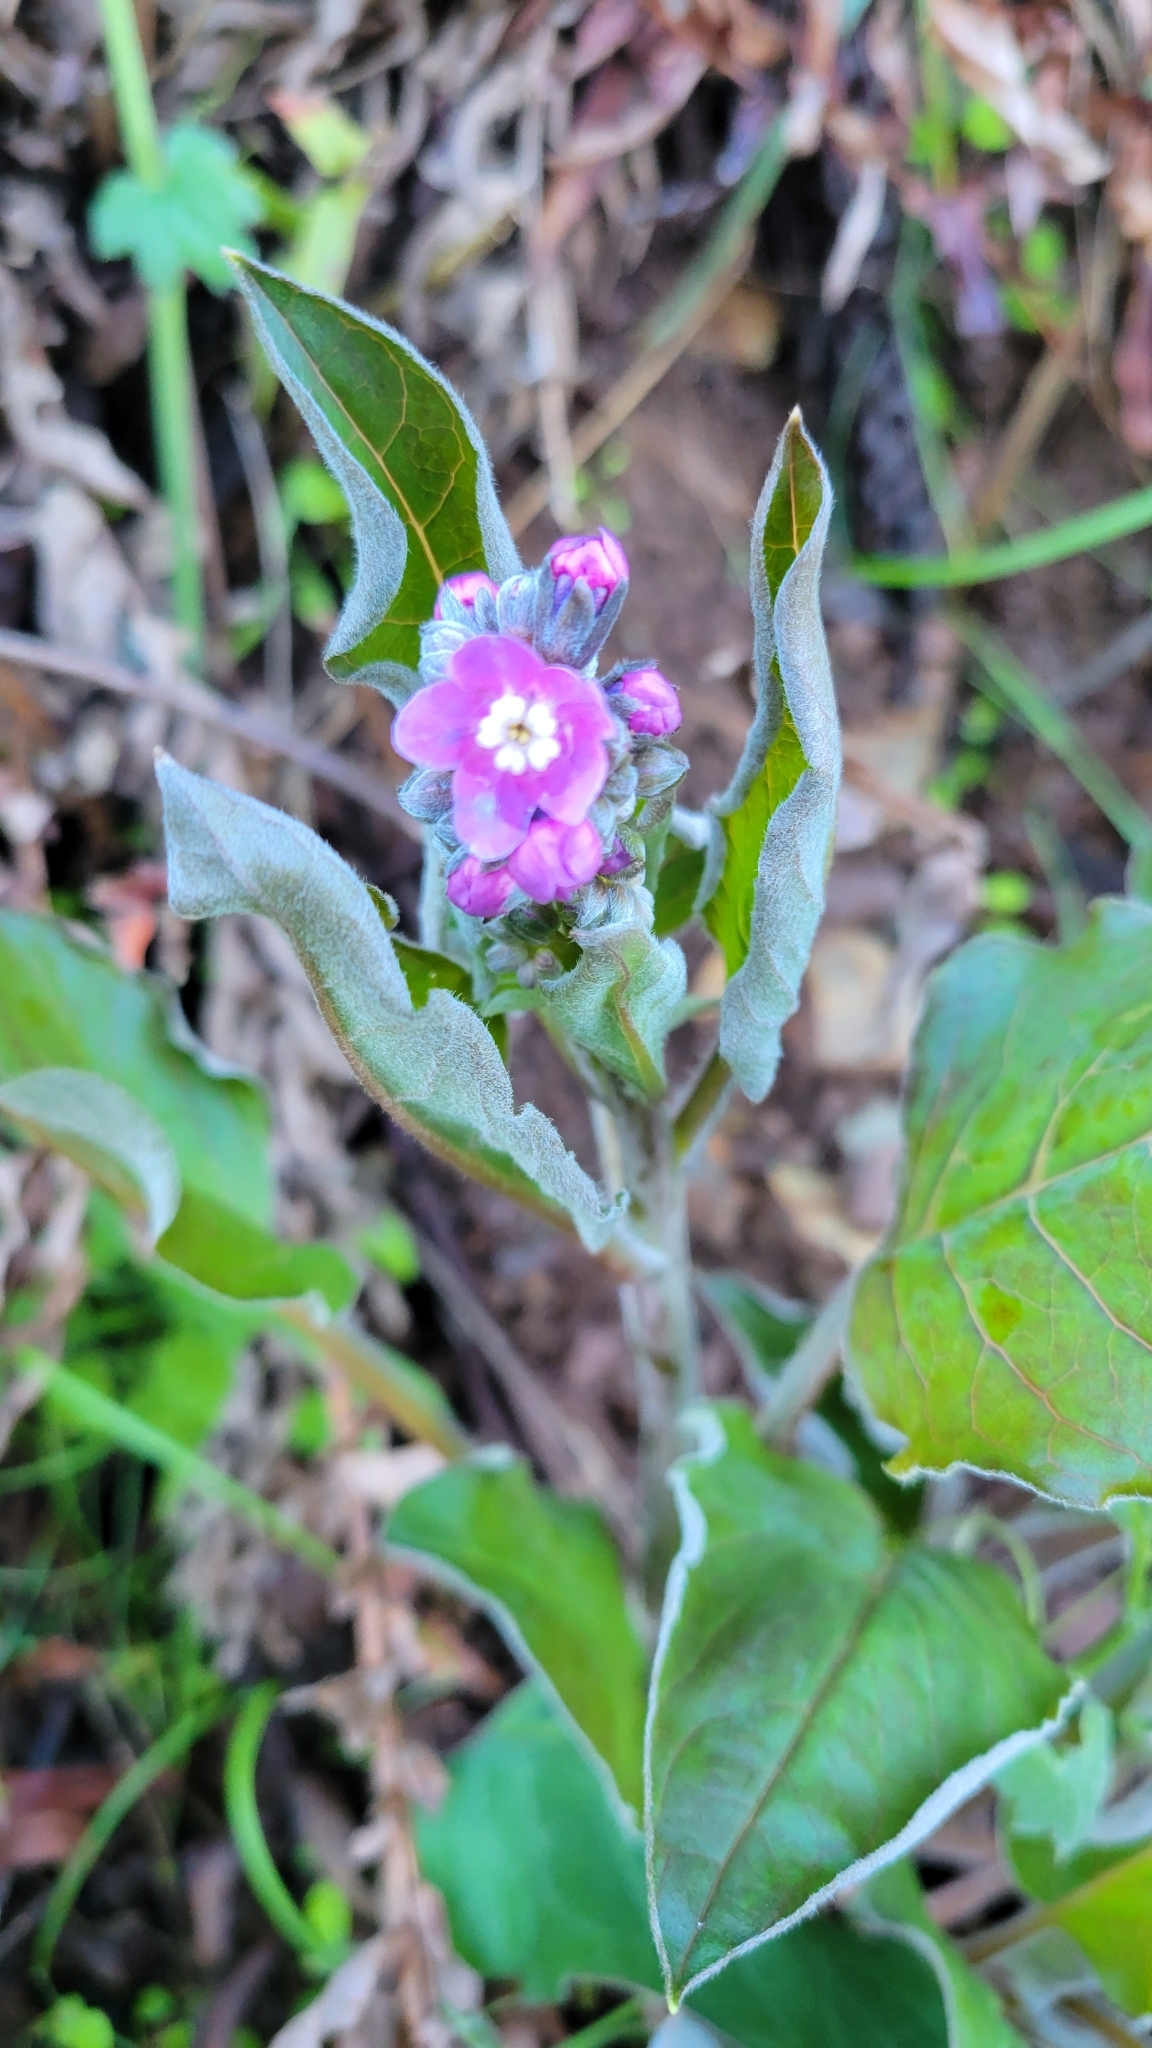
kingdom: Plantae
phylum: Tracheophyta
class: Magnoliopsida
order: Boraginales
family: Boraginaceae
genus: Adelinia
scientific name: Adelinia grande
